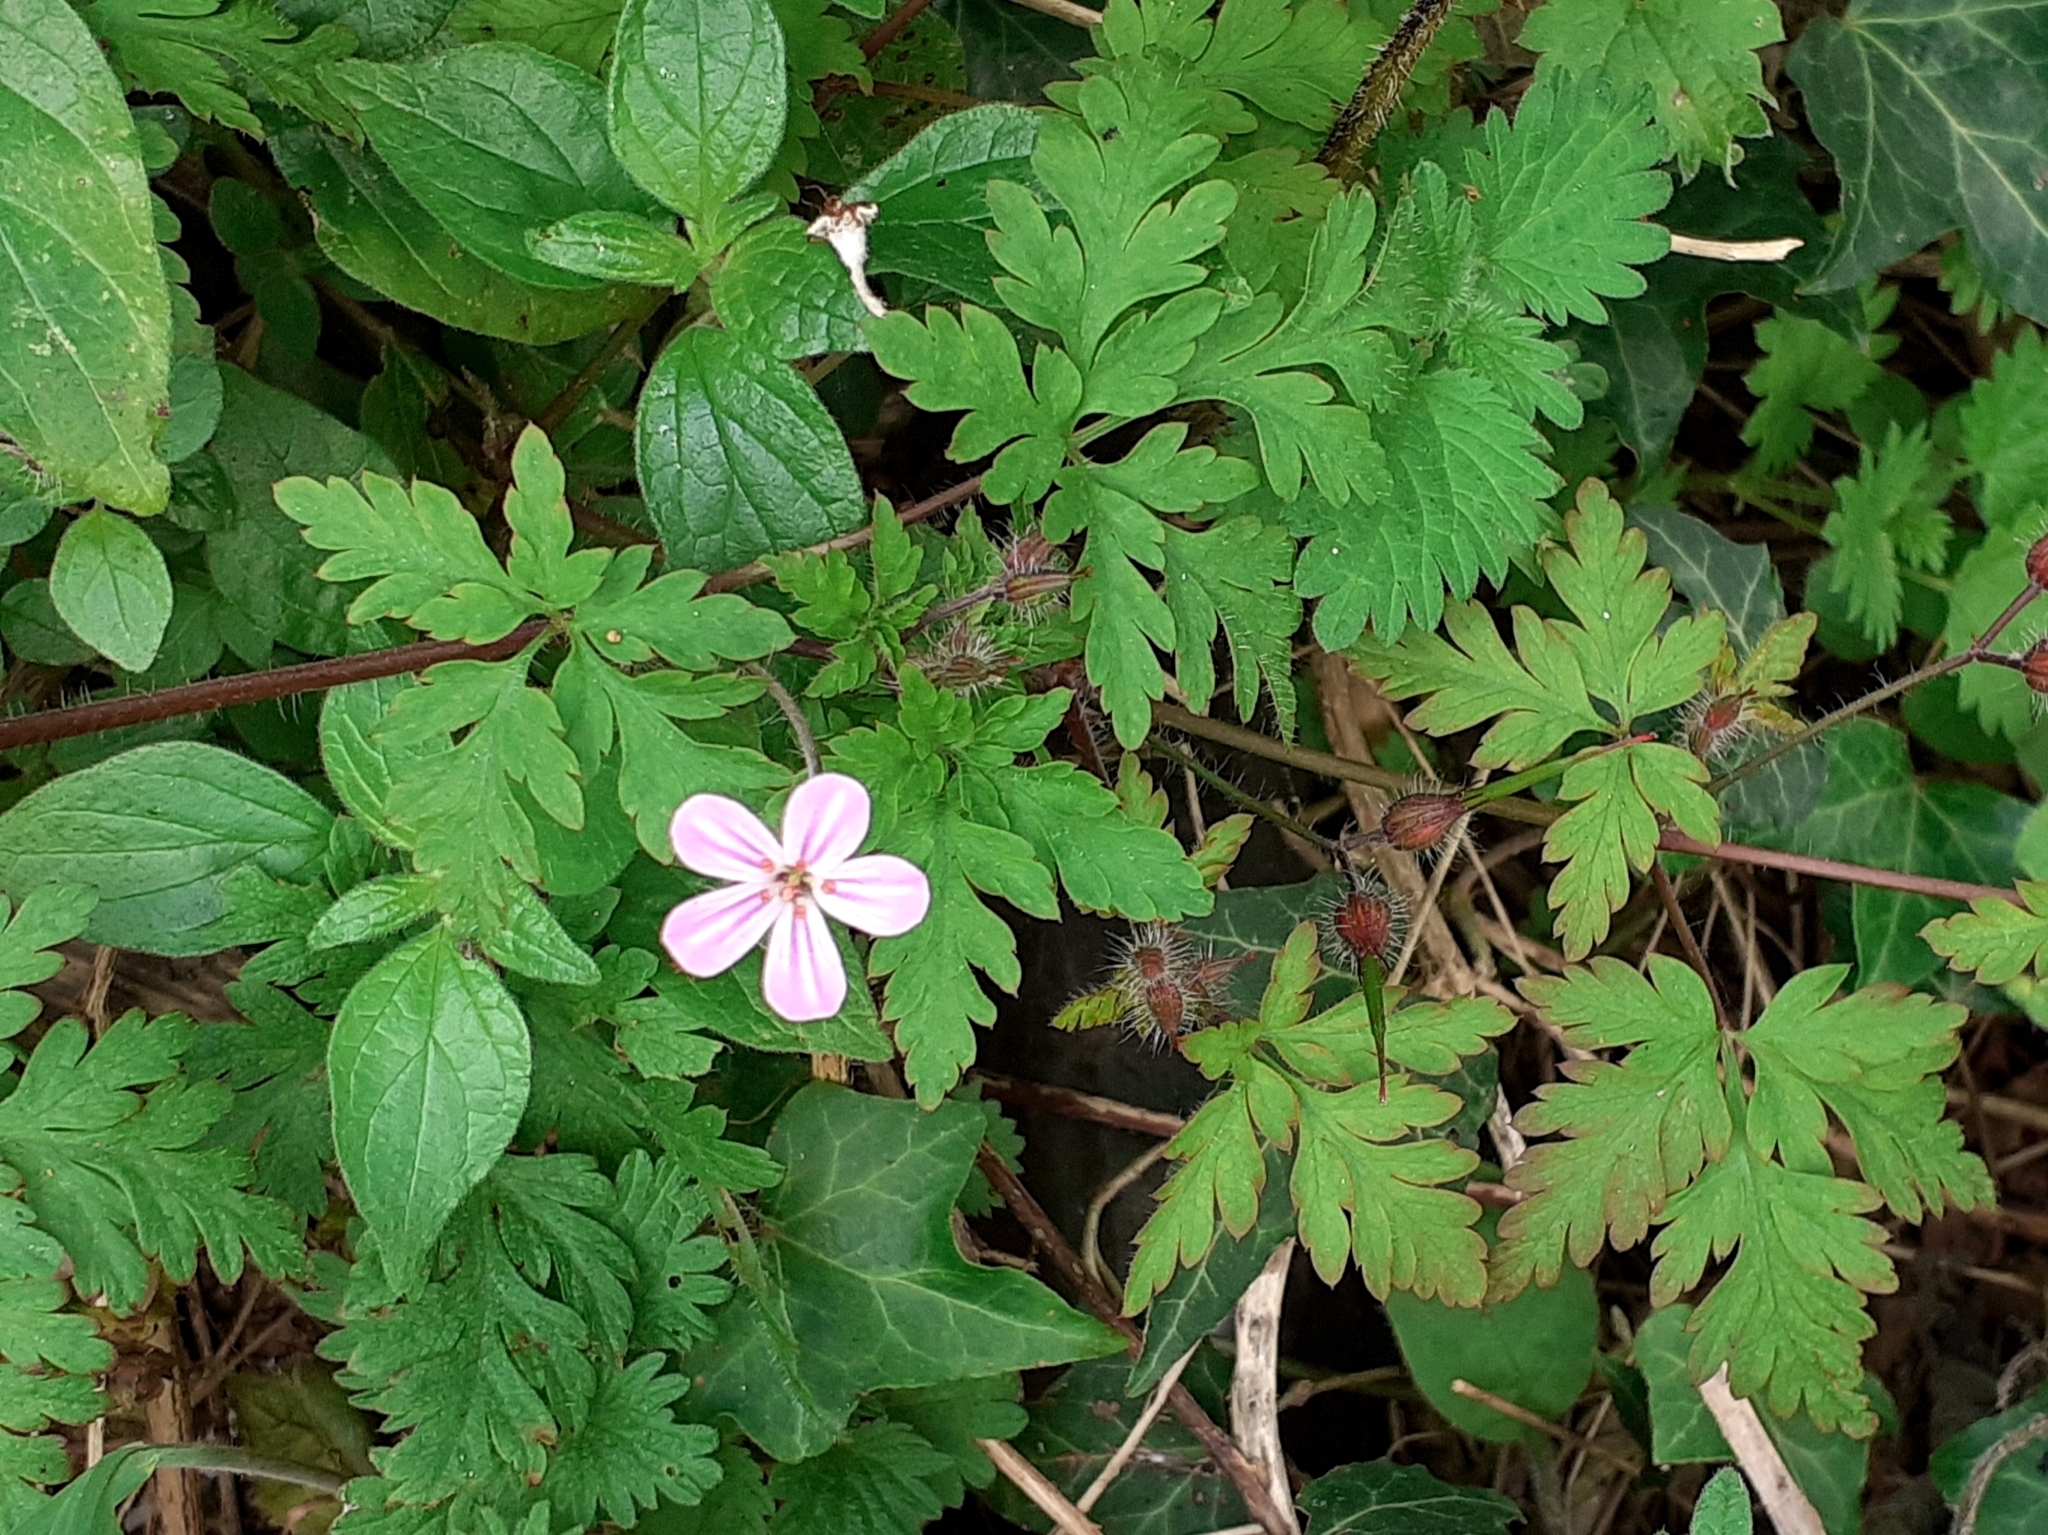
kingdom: Plantae
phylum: Tracheophyta
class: Magnoliopsida
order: Geraniales
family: Geraniaceae
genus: Geranium
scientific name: Geranium robertianum
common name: Herb-robert
